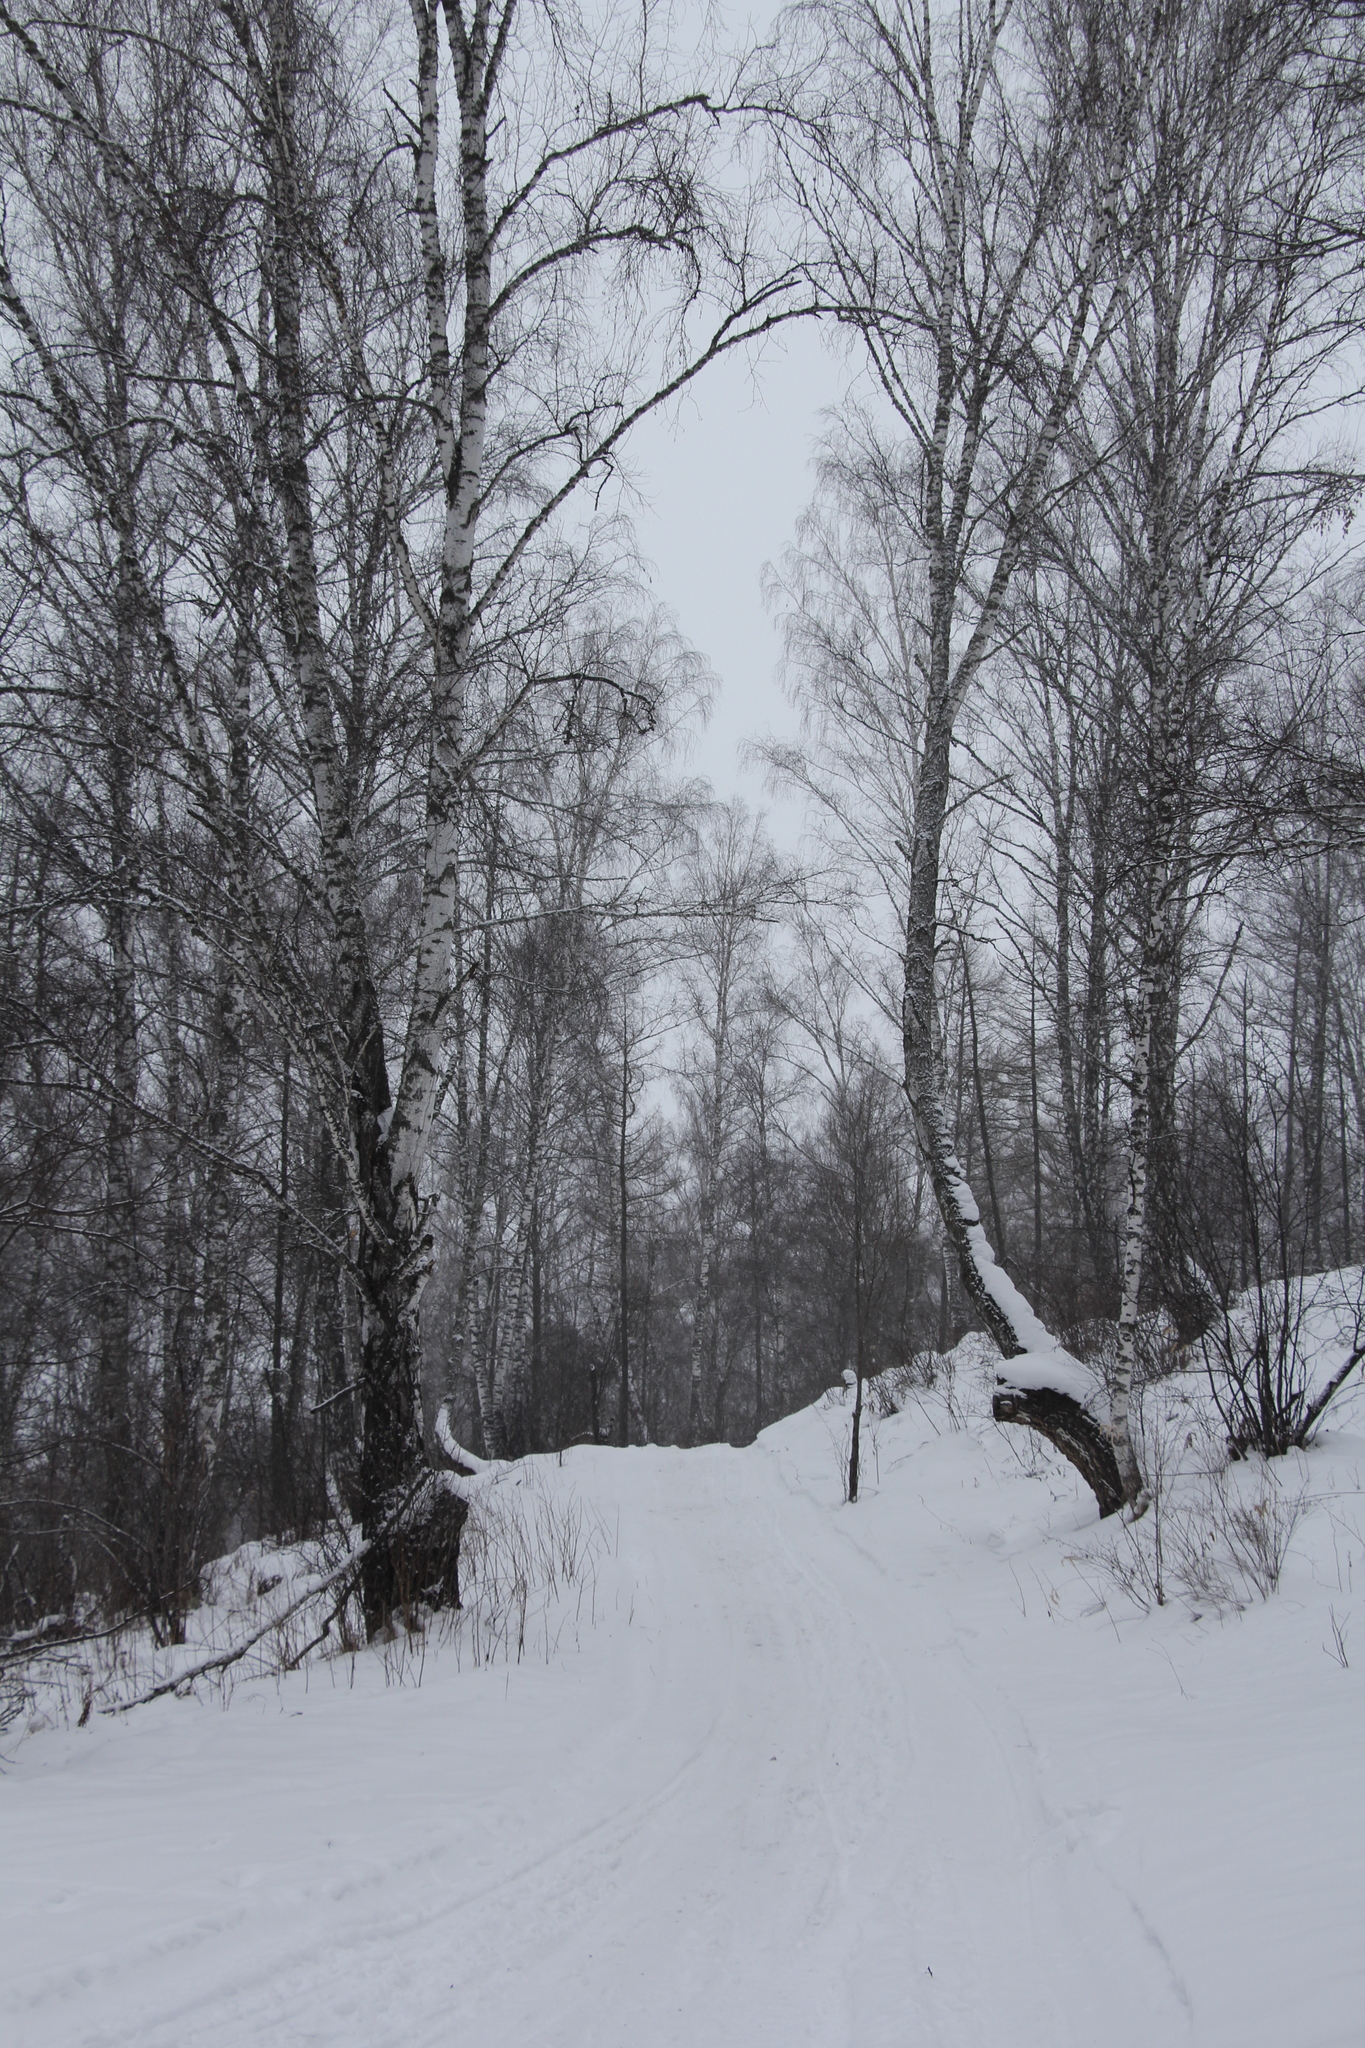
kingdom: Plantae
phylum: Tracheophyta
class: Magnoliopsida
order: Fagales
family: Betulaceae
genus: Betula
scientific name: Betula pendula
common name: Silver birch
